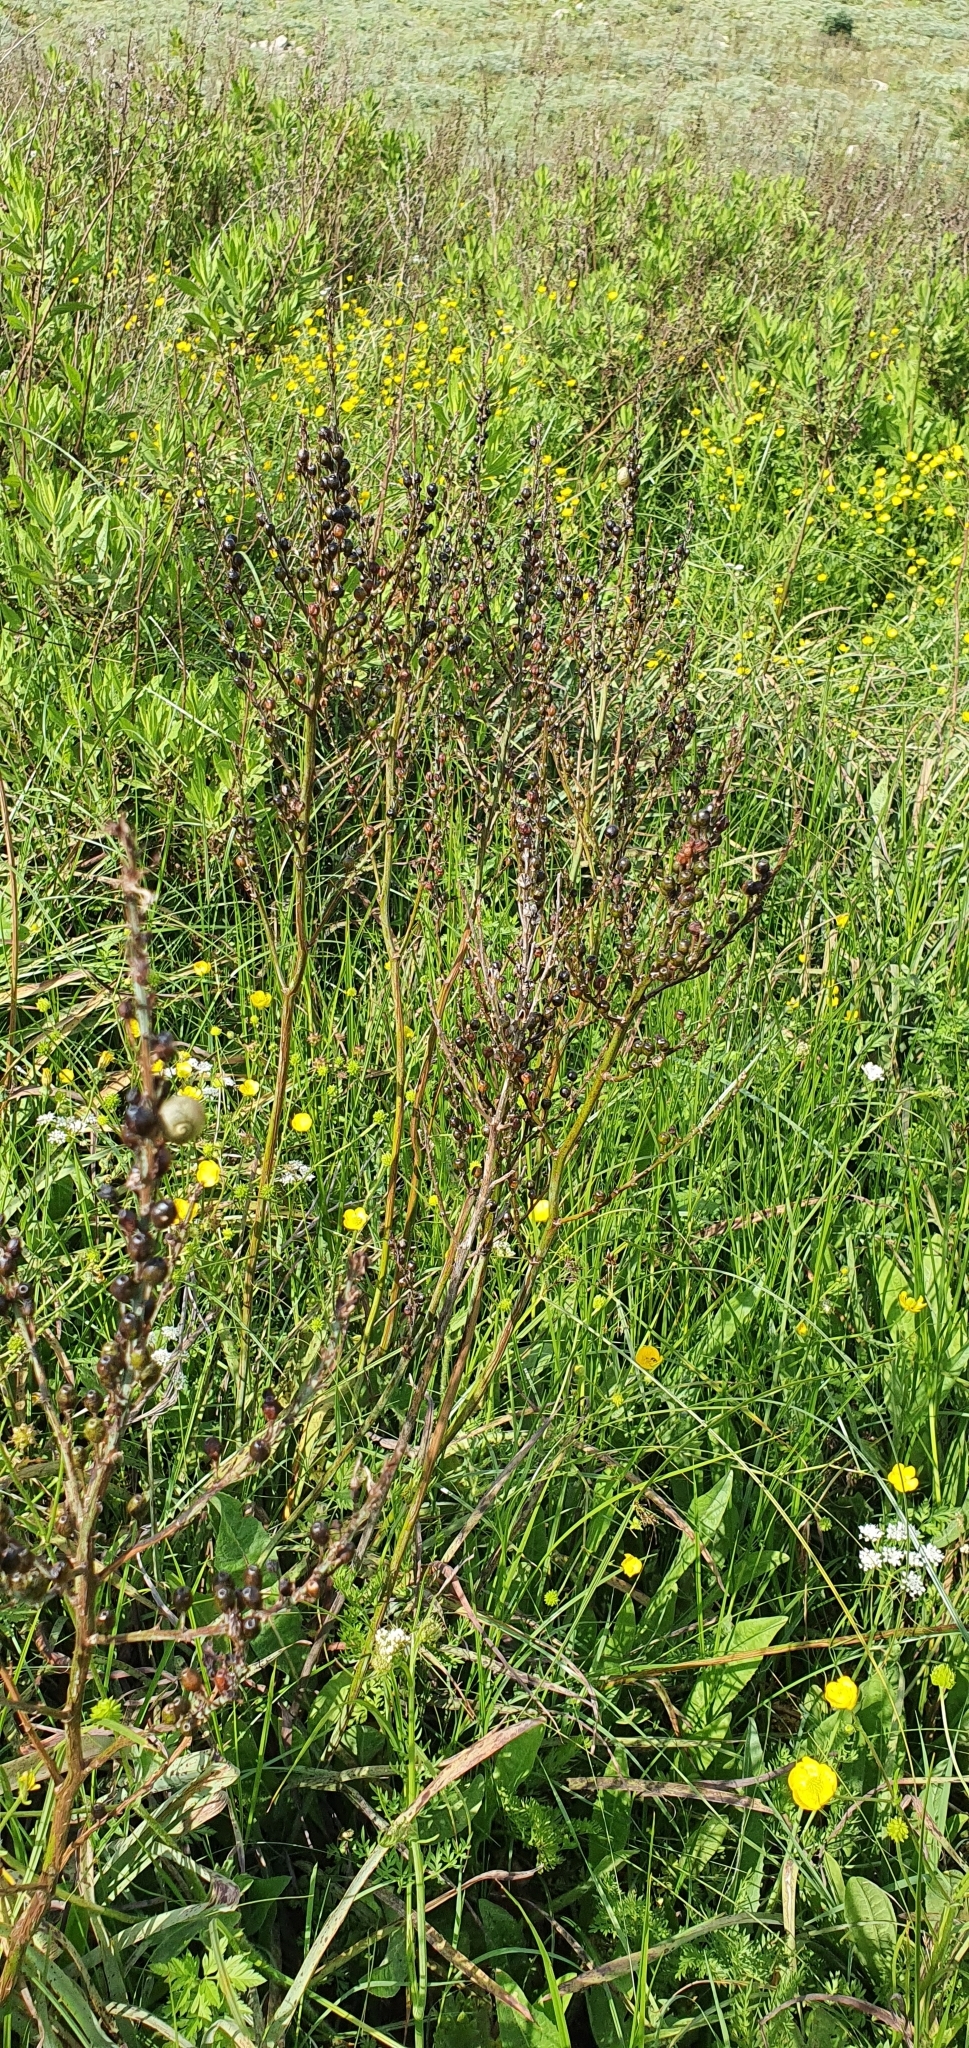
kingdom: Plantae
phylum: Tracheophyta
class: Liliopsida
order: Asparagales
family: Asphodelaceae
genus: Asphodelus
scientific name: Asphodelus ramosus
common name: Silverrod
